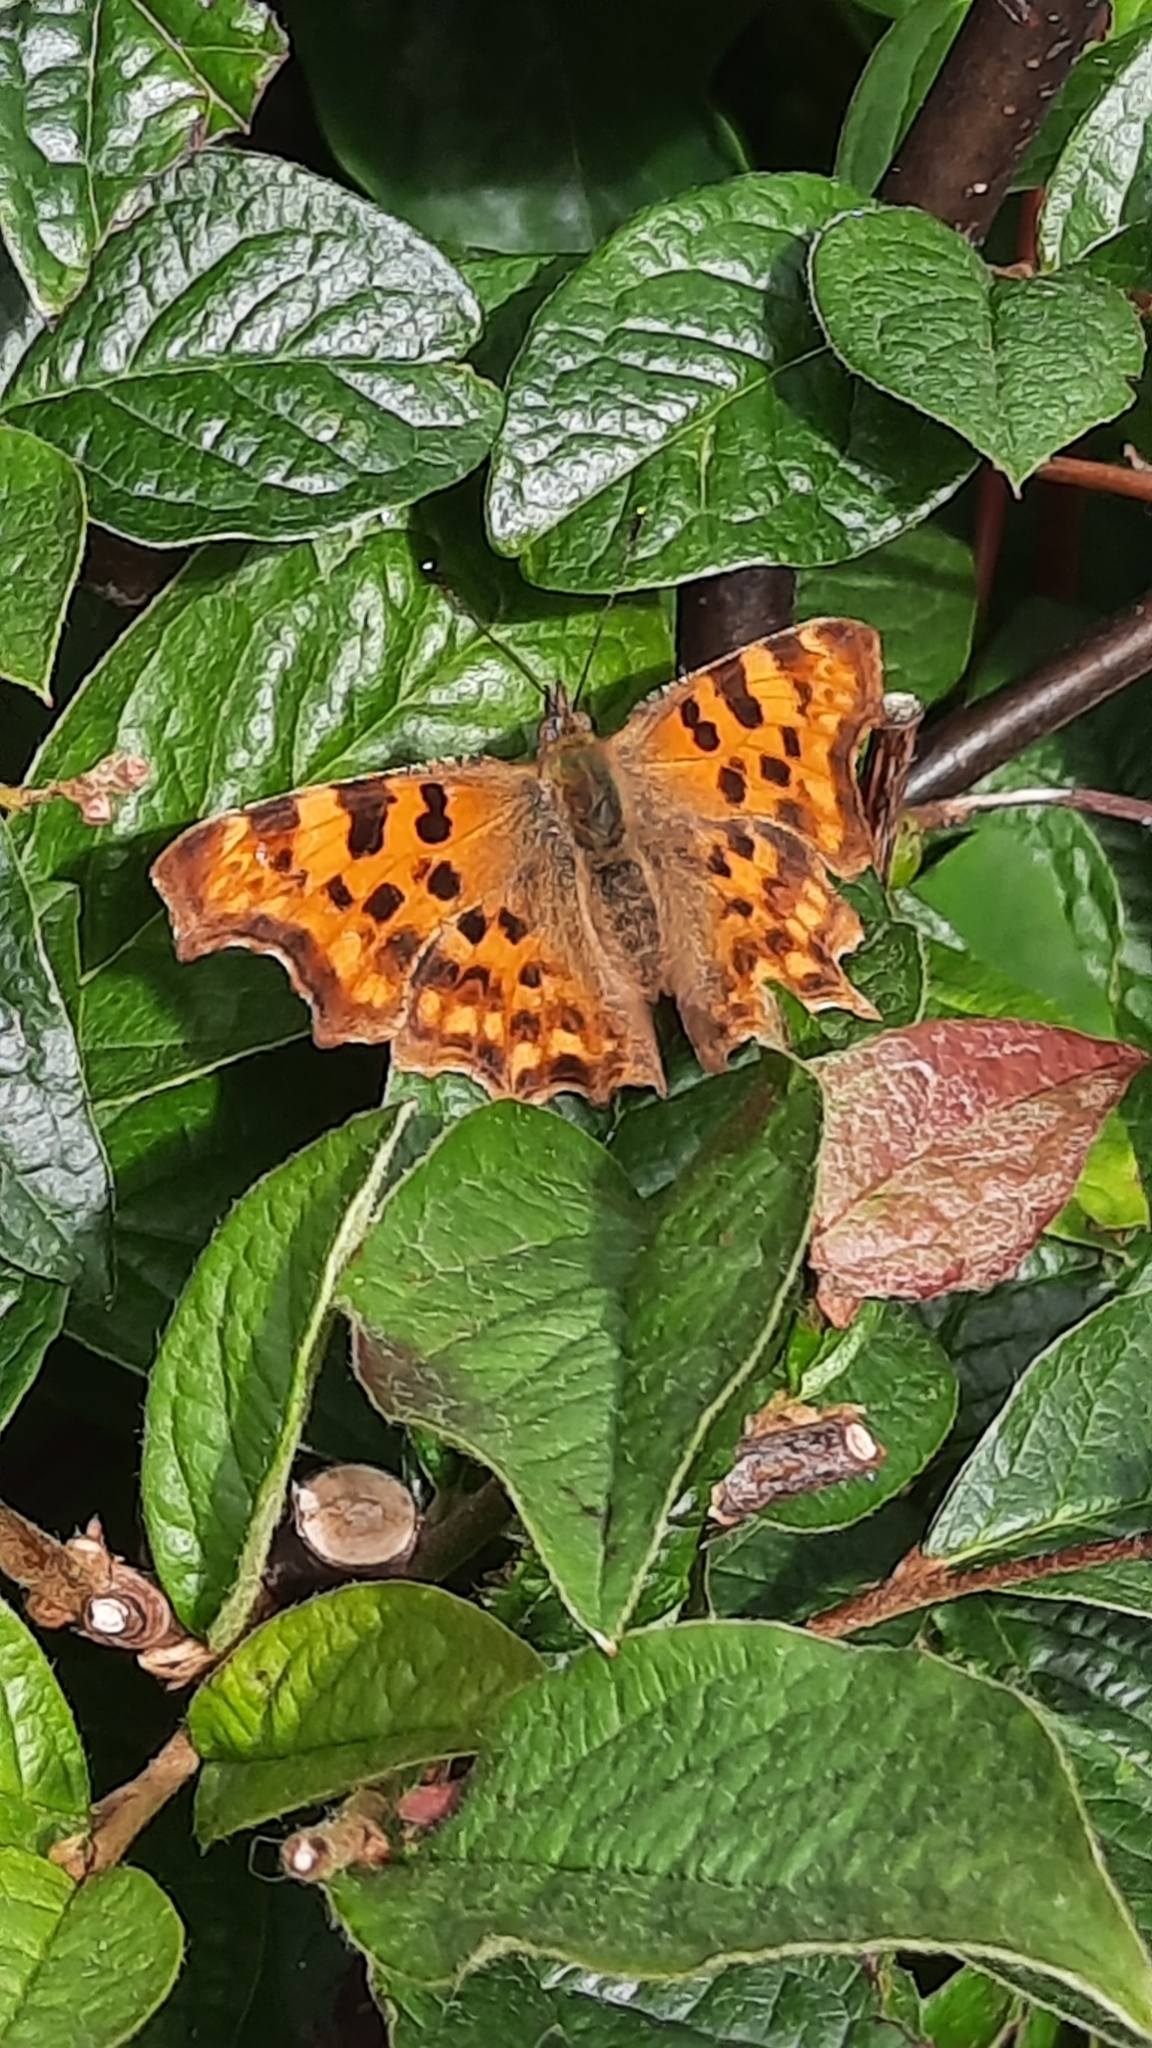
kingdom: Animalia
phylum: Arthropoda
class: Insecta
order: Lepidoptera
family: Nymphalidae
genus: Polygonia
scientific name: Polygonia c-album
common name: Comma
